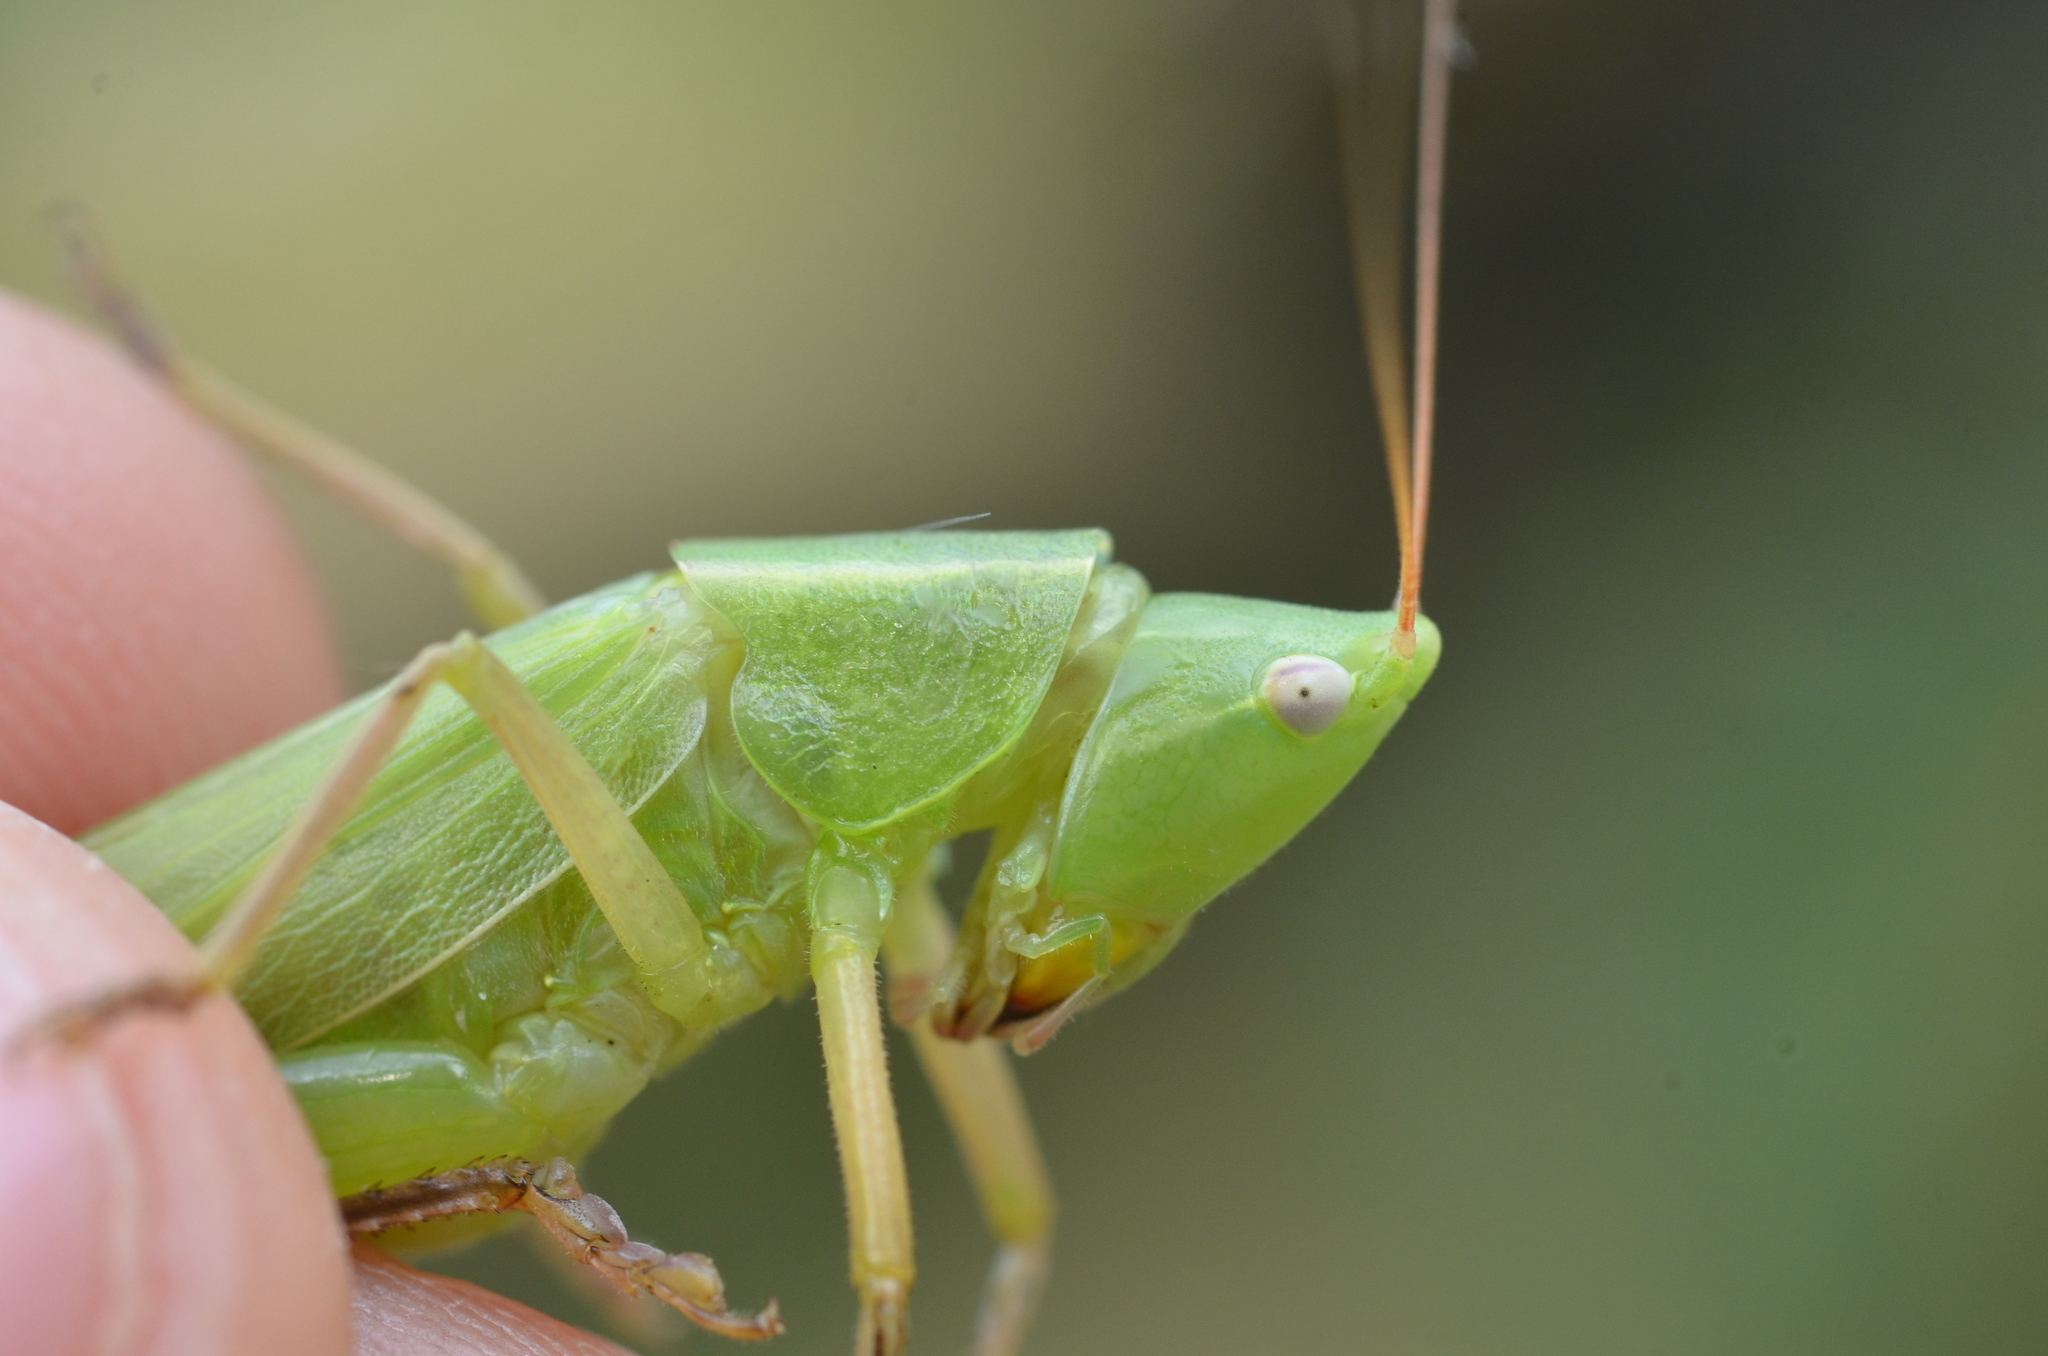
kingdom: Animalia
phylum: Arthropoda
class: Insecta
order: Orthoptera
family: Tettigoniidae
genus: Ruspolia
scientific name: Ruspolia nitidula
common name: Large conehead
